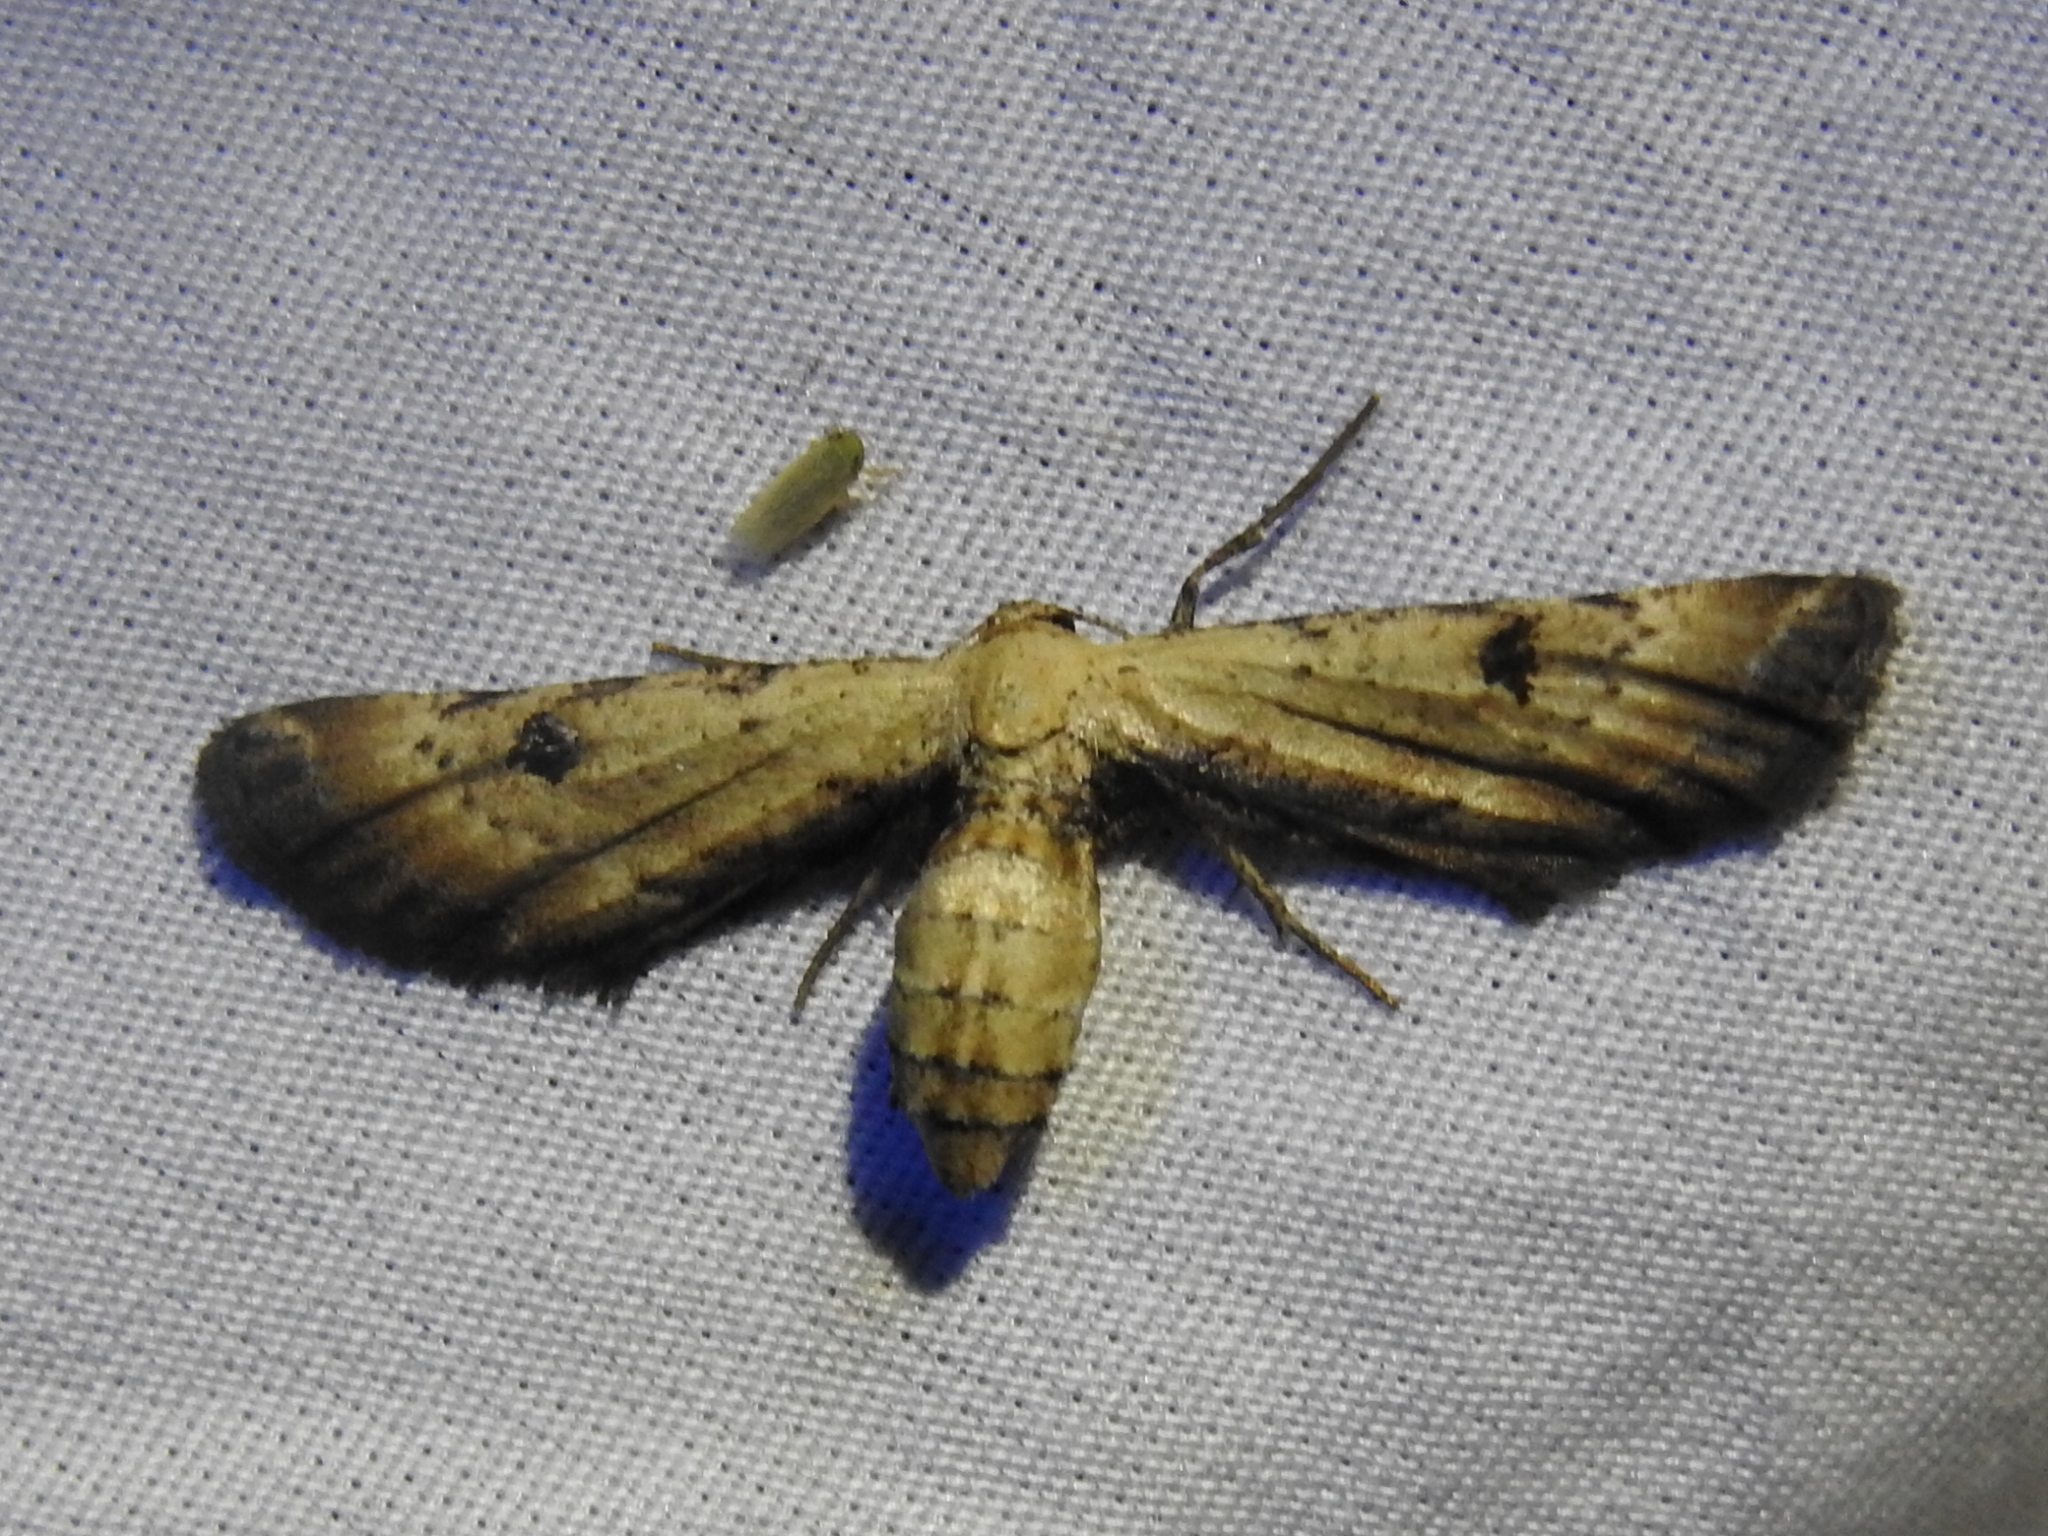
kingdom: Animalia
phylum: Arthropoda
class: Insecta
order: Lepidoptera
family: Geometridae
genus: Tornos
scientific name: Tornos scolopacinaria
